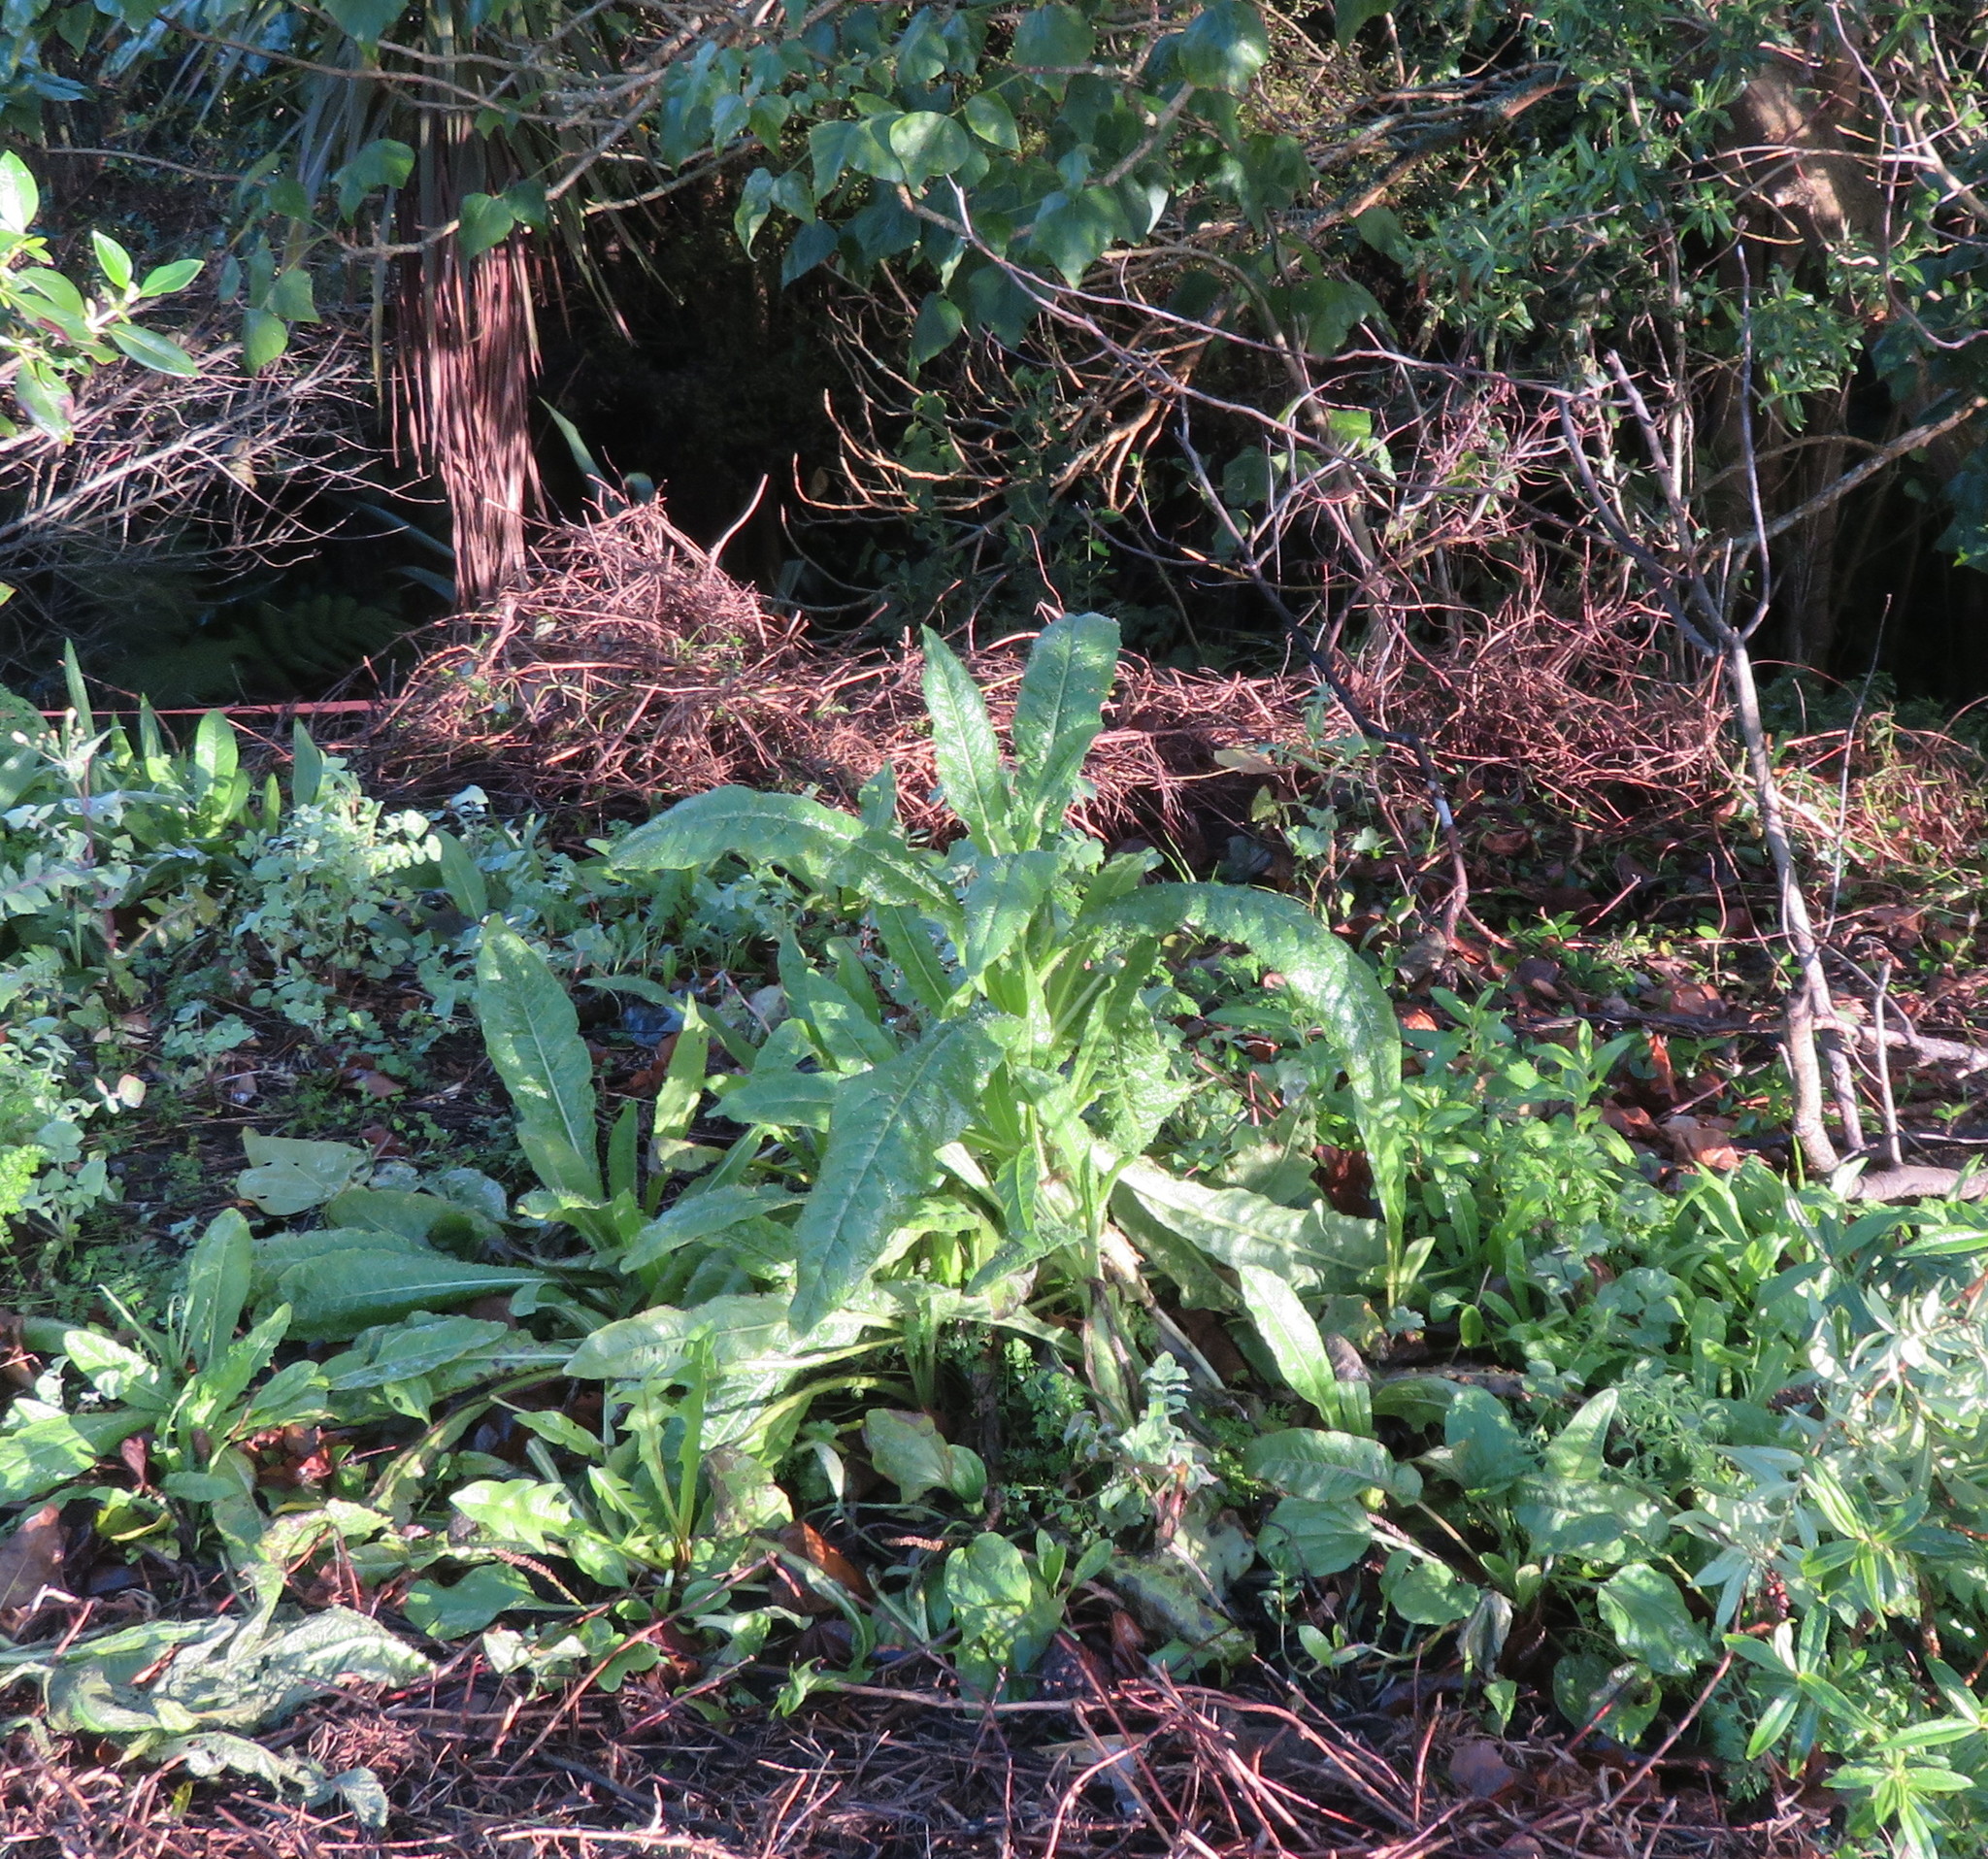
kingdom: Plantae
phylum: Tracheophyta
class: Magnoliopsida
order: Asterales
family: Asteraceae
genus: Helminthotheca
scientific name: Helminthotheca echioides
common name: Ox-tongue
